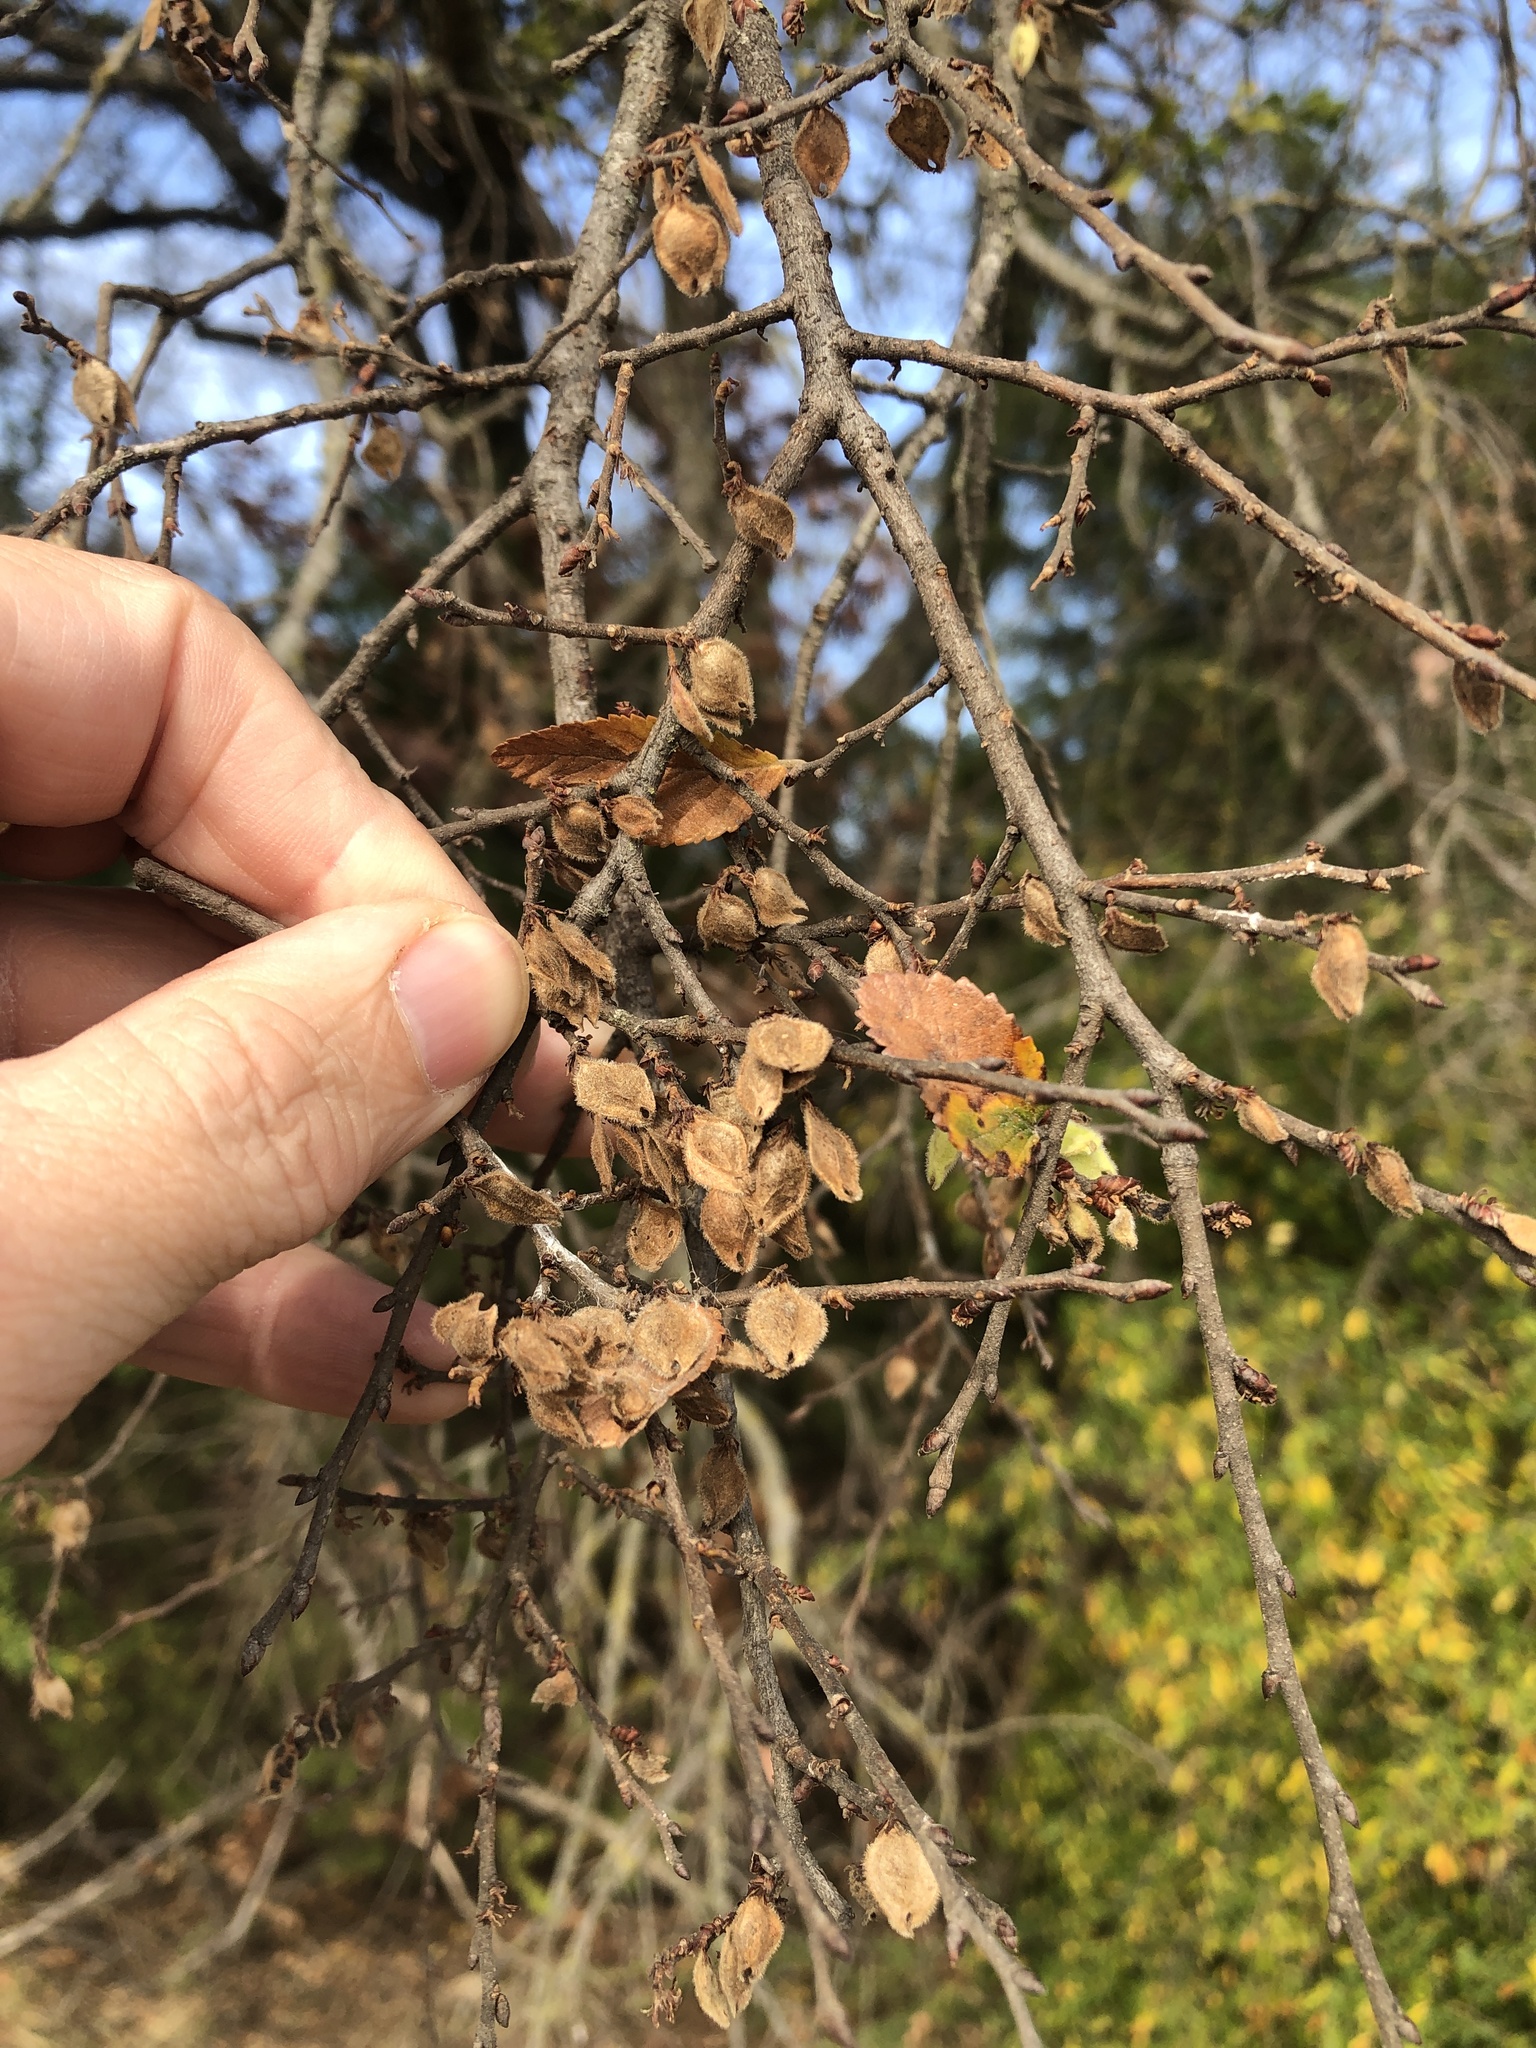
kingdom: Plantae
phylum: Tracheophyta
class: Magnoliopsida
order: Rosales
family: Ulmaceae
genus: Ulmus
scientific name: Ulmus crassifolia
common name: Basket elm
